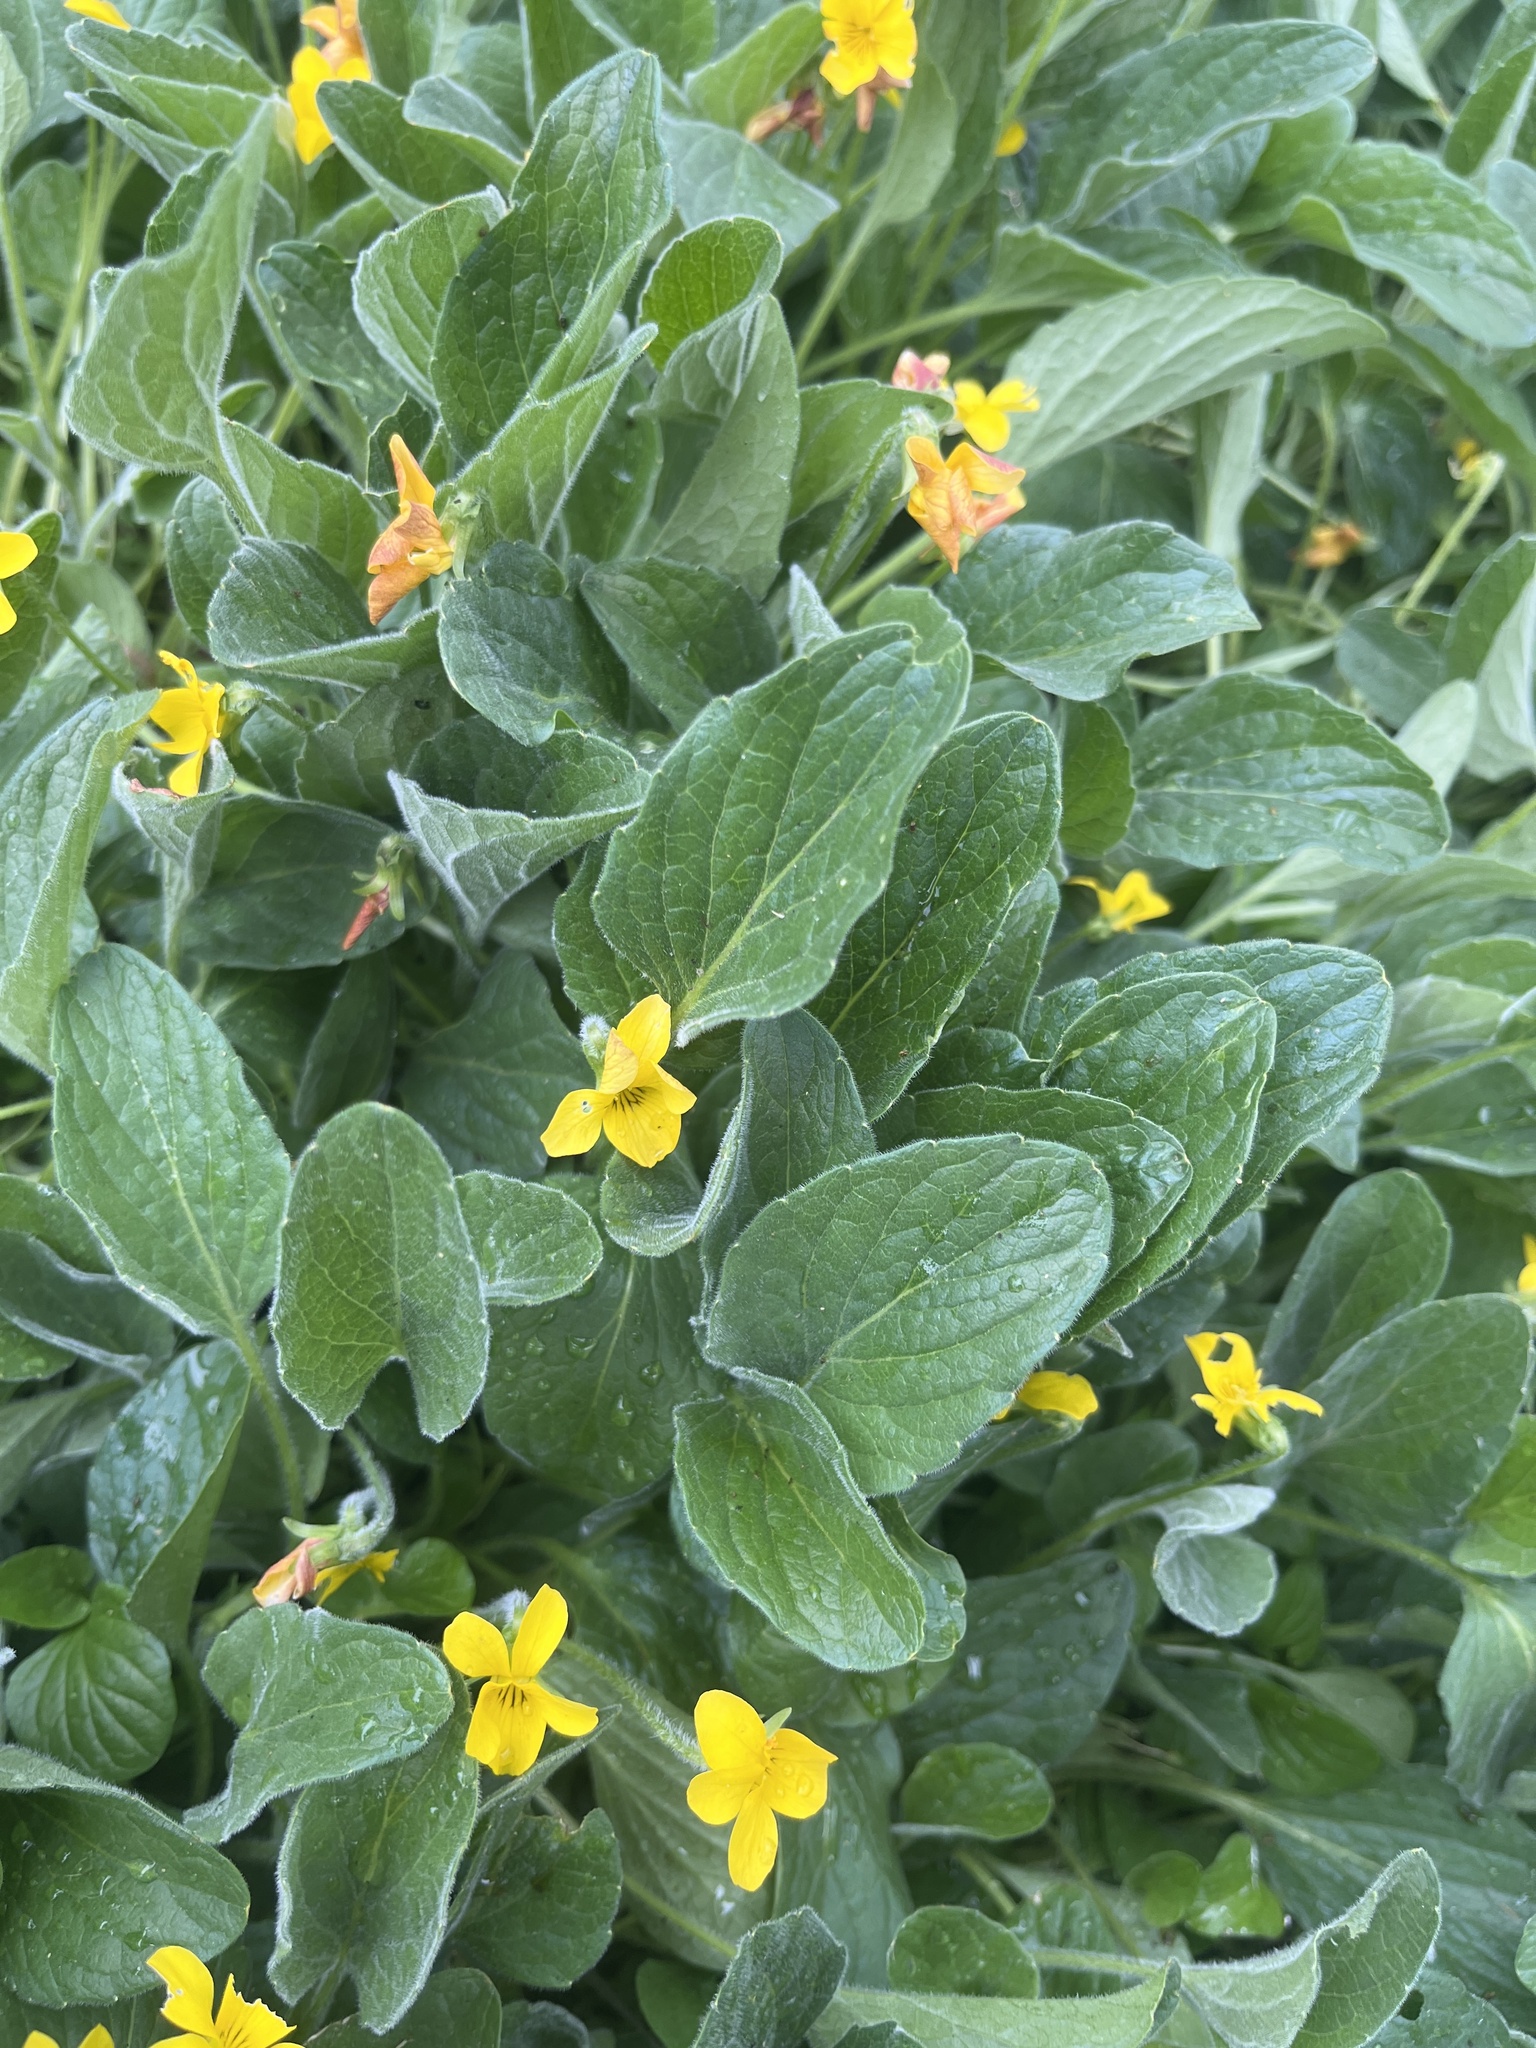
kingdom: Plantae
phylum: Tracheophyta
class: Magnoliopsida
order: Malpighiales
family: Violaceae
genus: Viola
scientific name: Viola praemorsa
